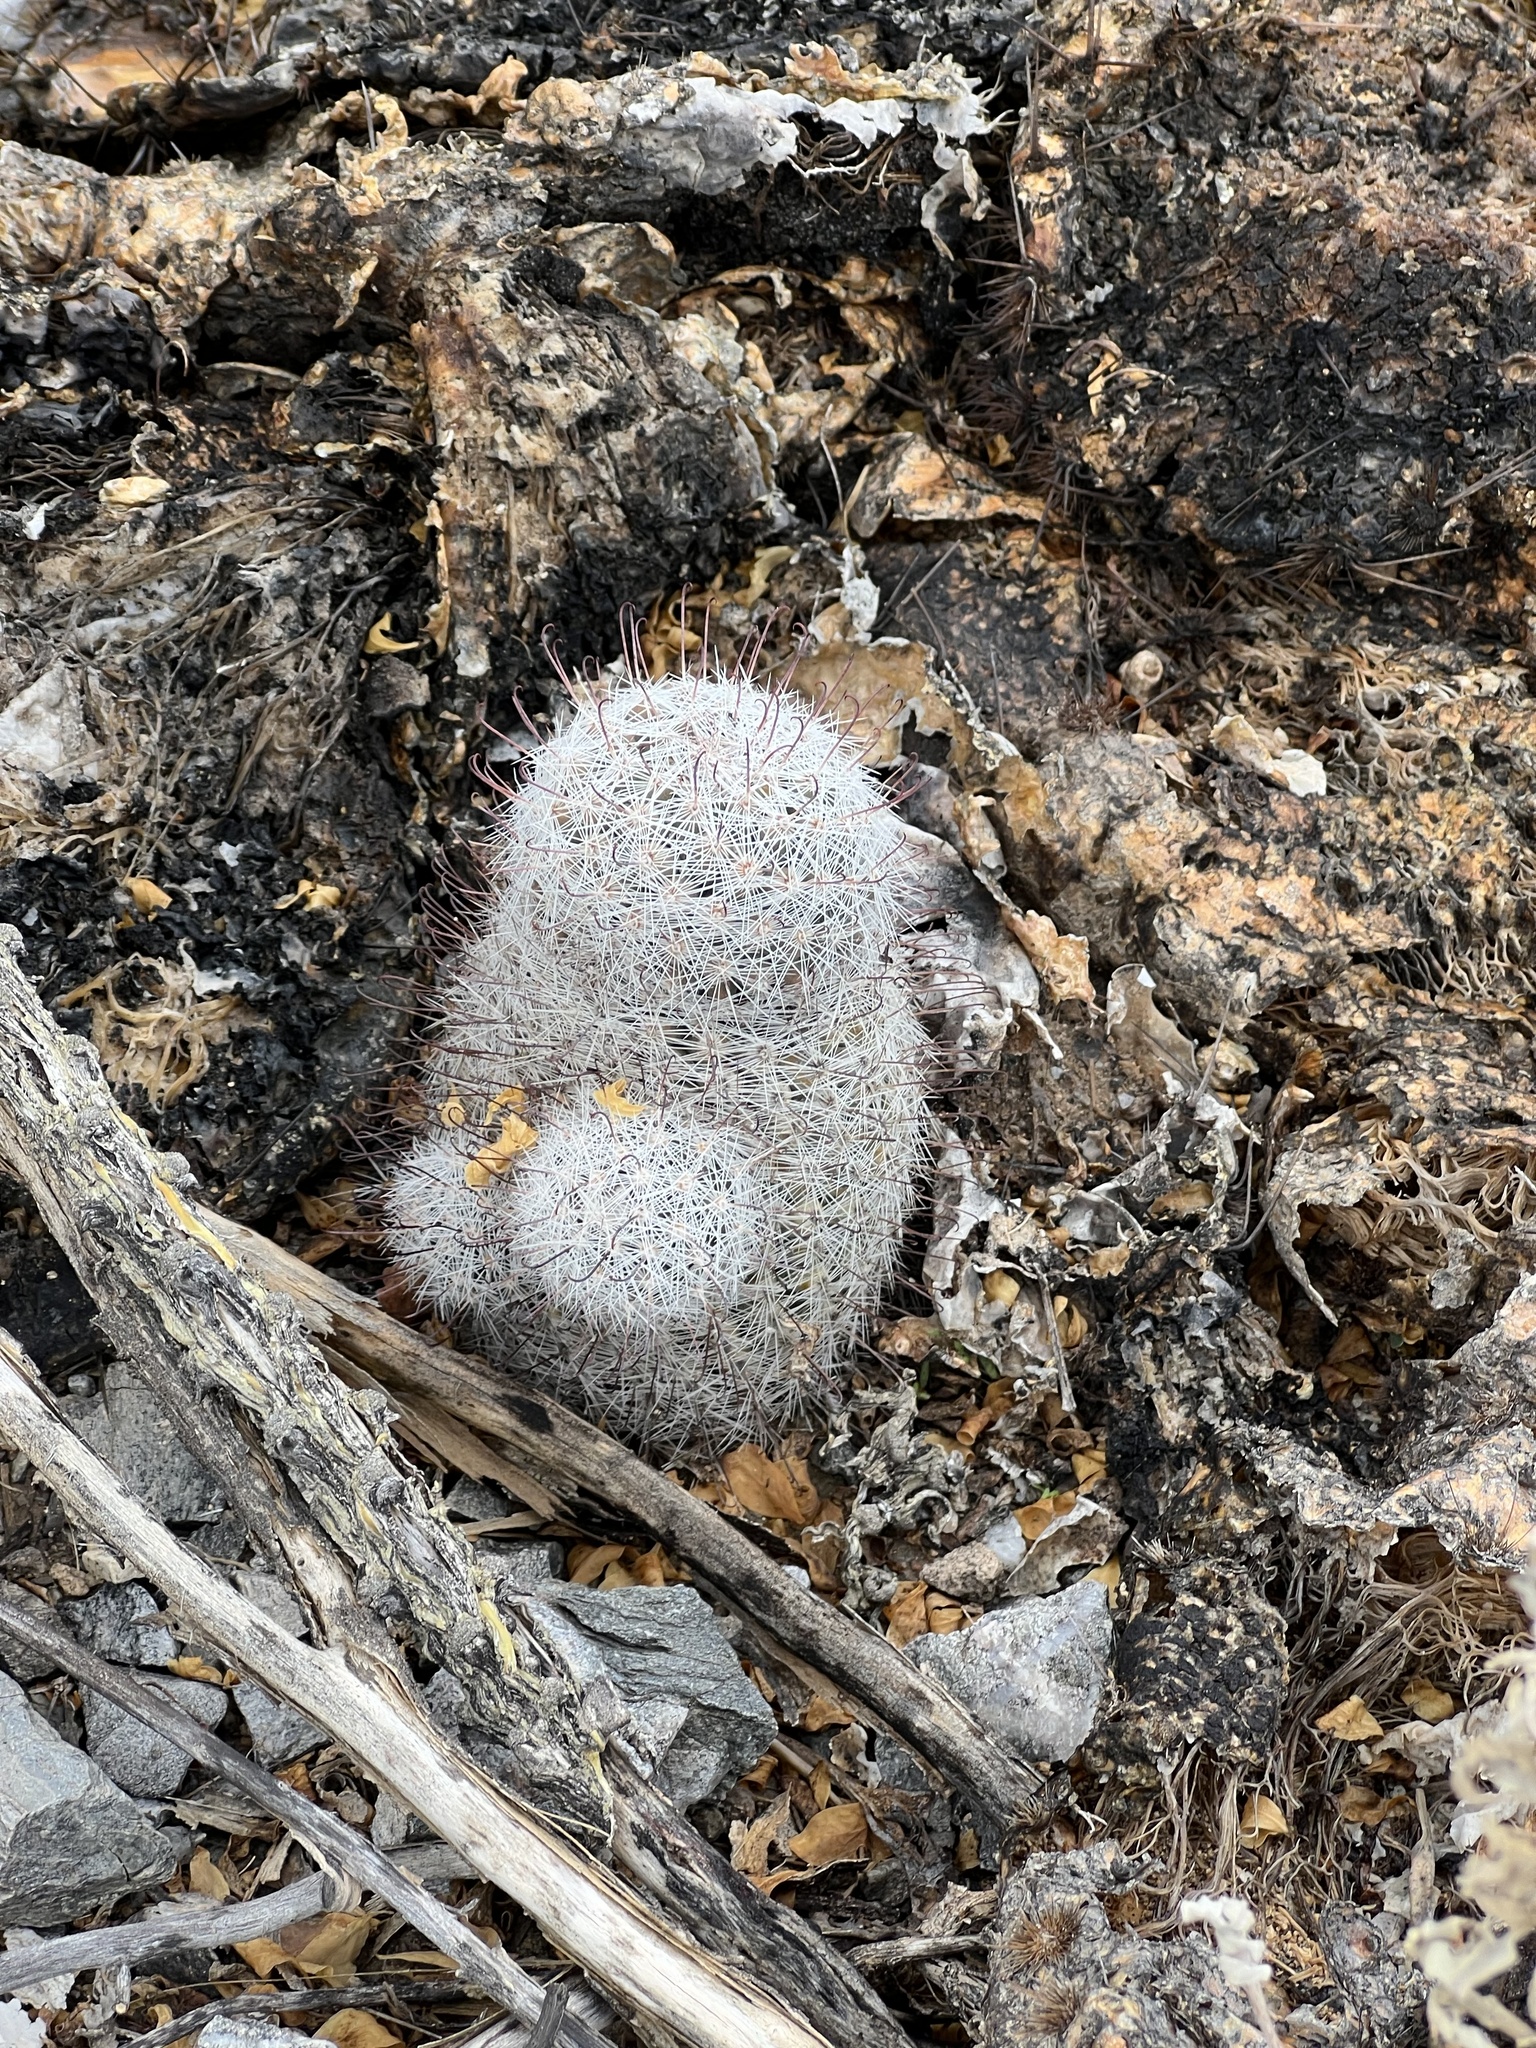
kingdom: Plantae
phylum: Tracheophyta
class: Magnoliopsida
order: Caryophyllales
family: Cactaceae
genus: Cochemiea
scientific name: Cochemiea grahamii
